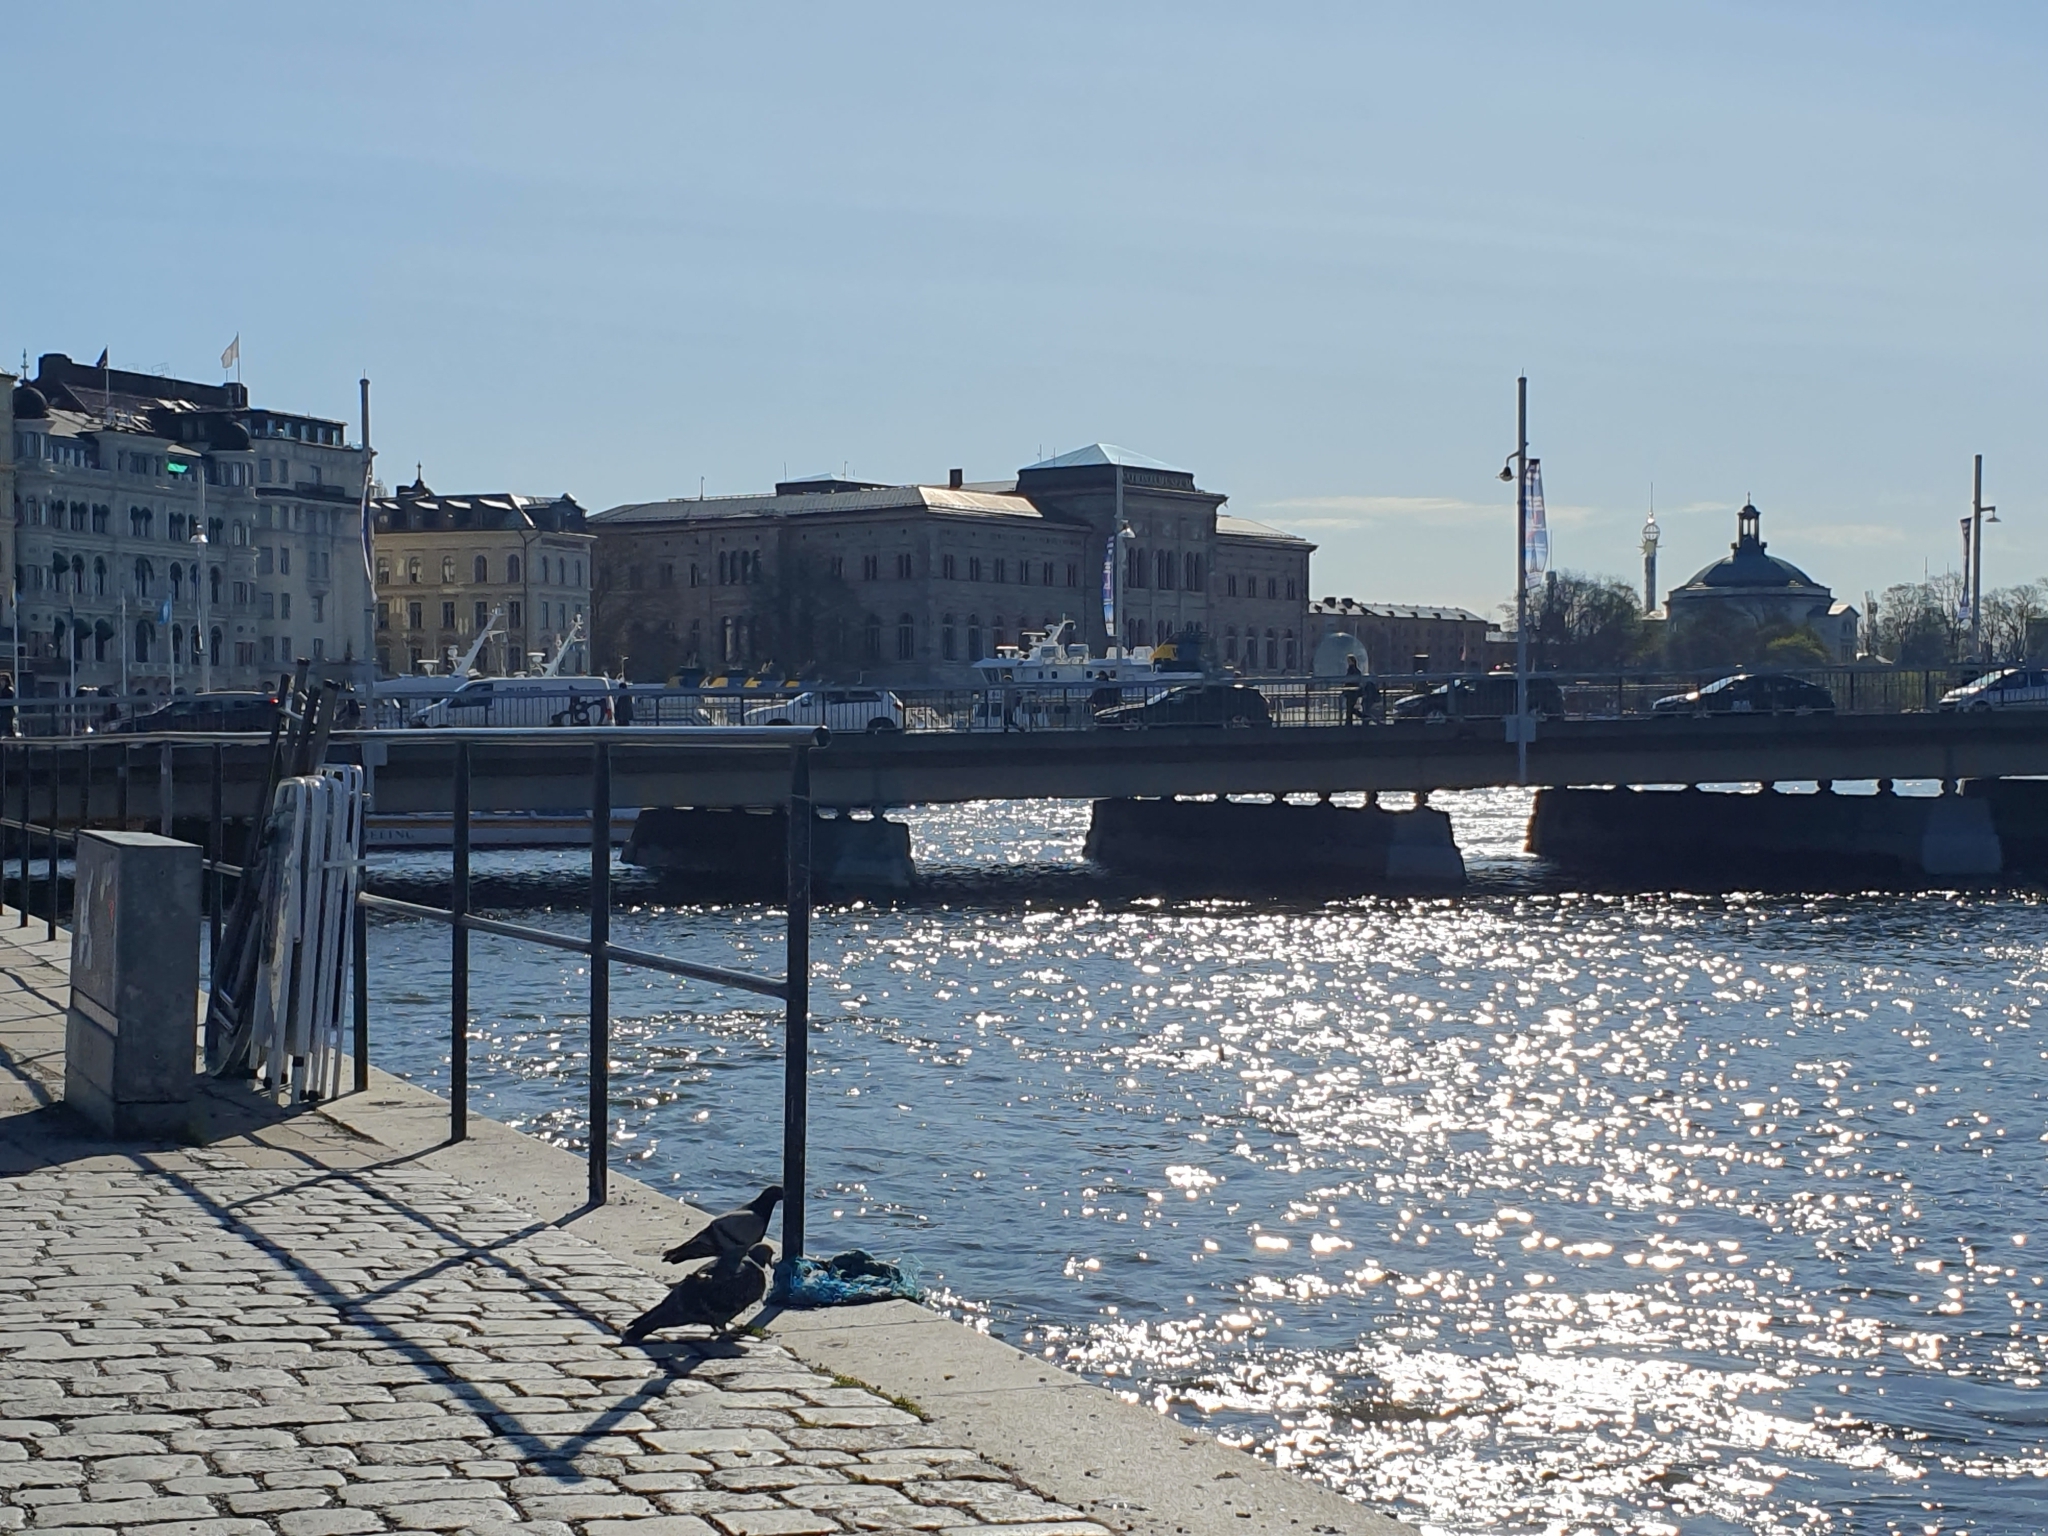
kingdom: Animalia
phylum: Chordata
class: Aves
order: Columbiformes
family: Columbidae
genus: Columba
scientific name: Columba livia
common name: Rock pigeon
